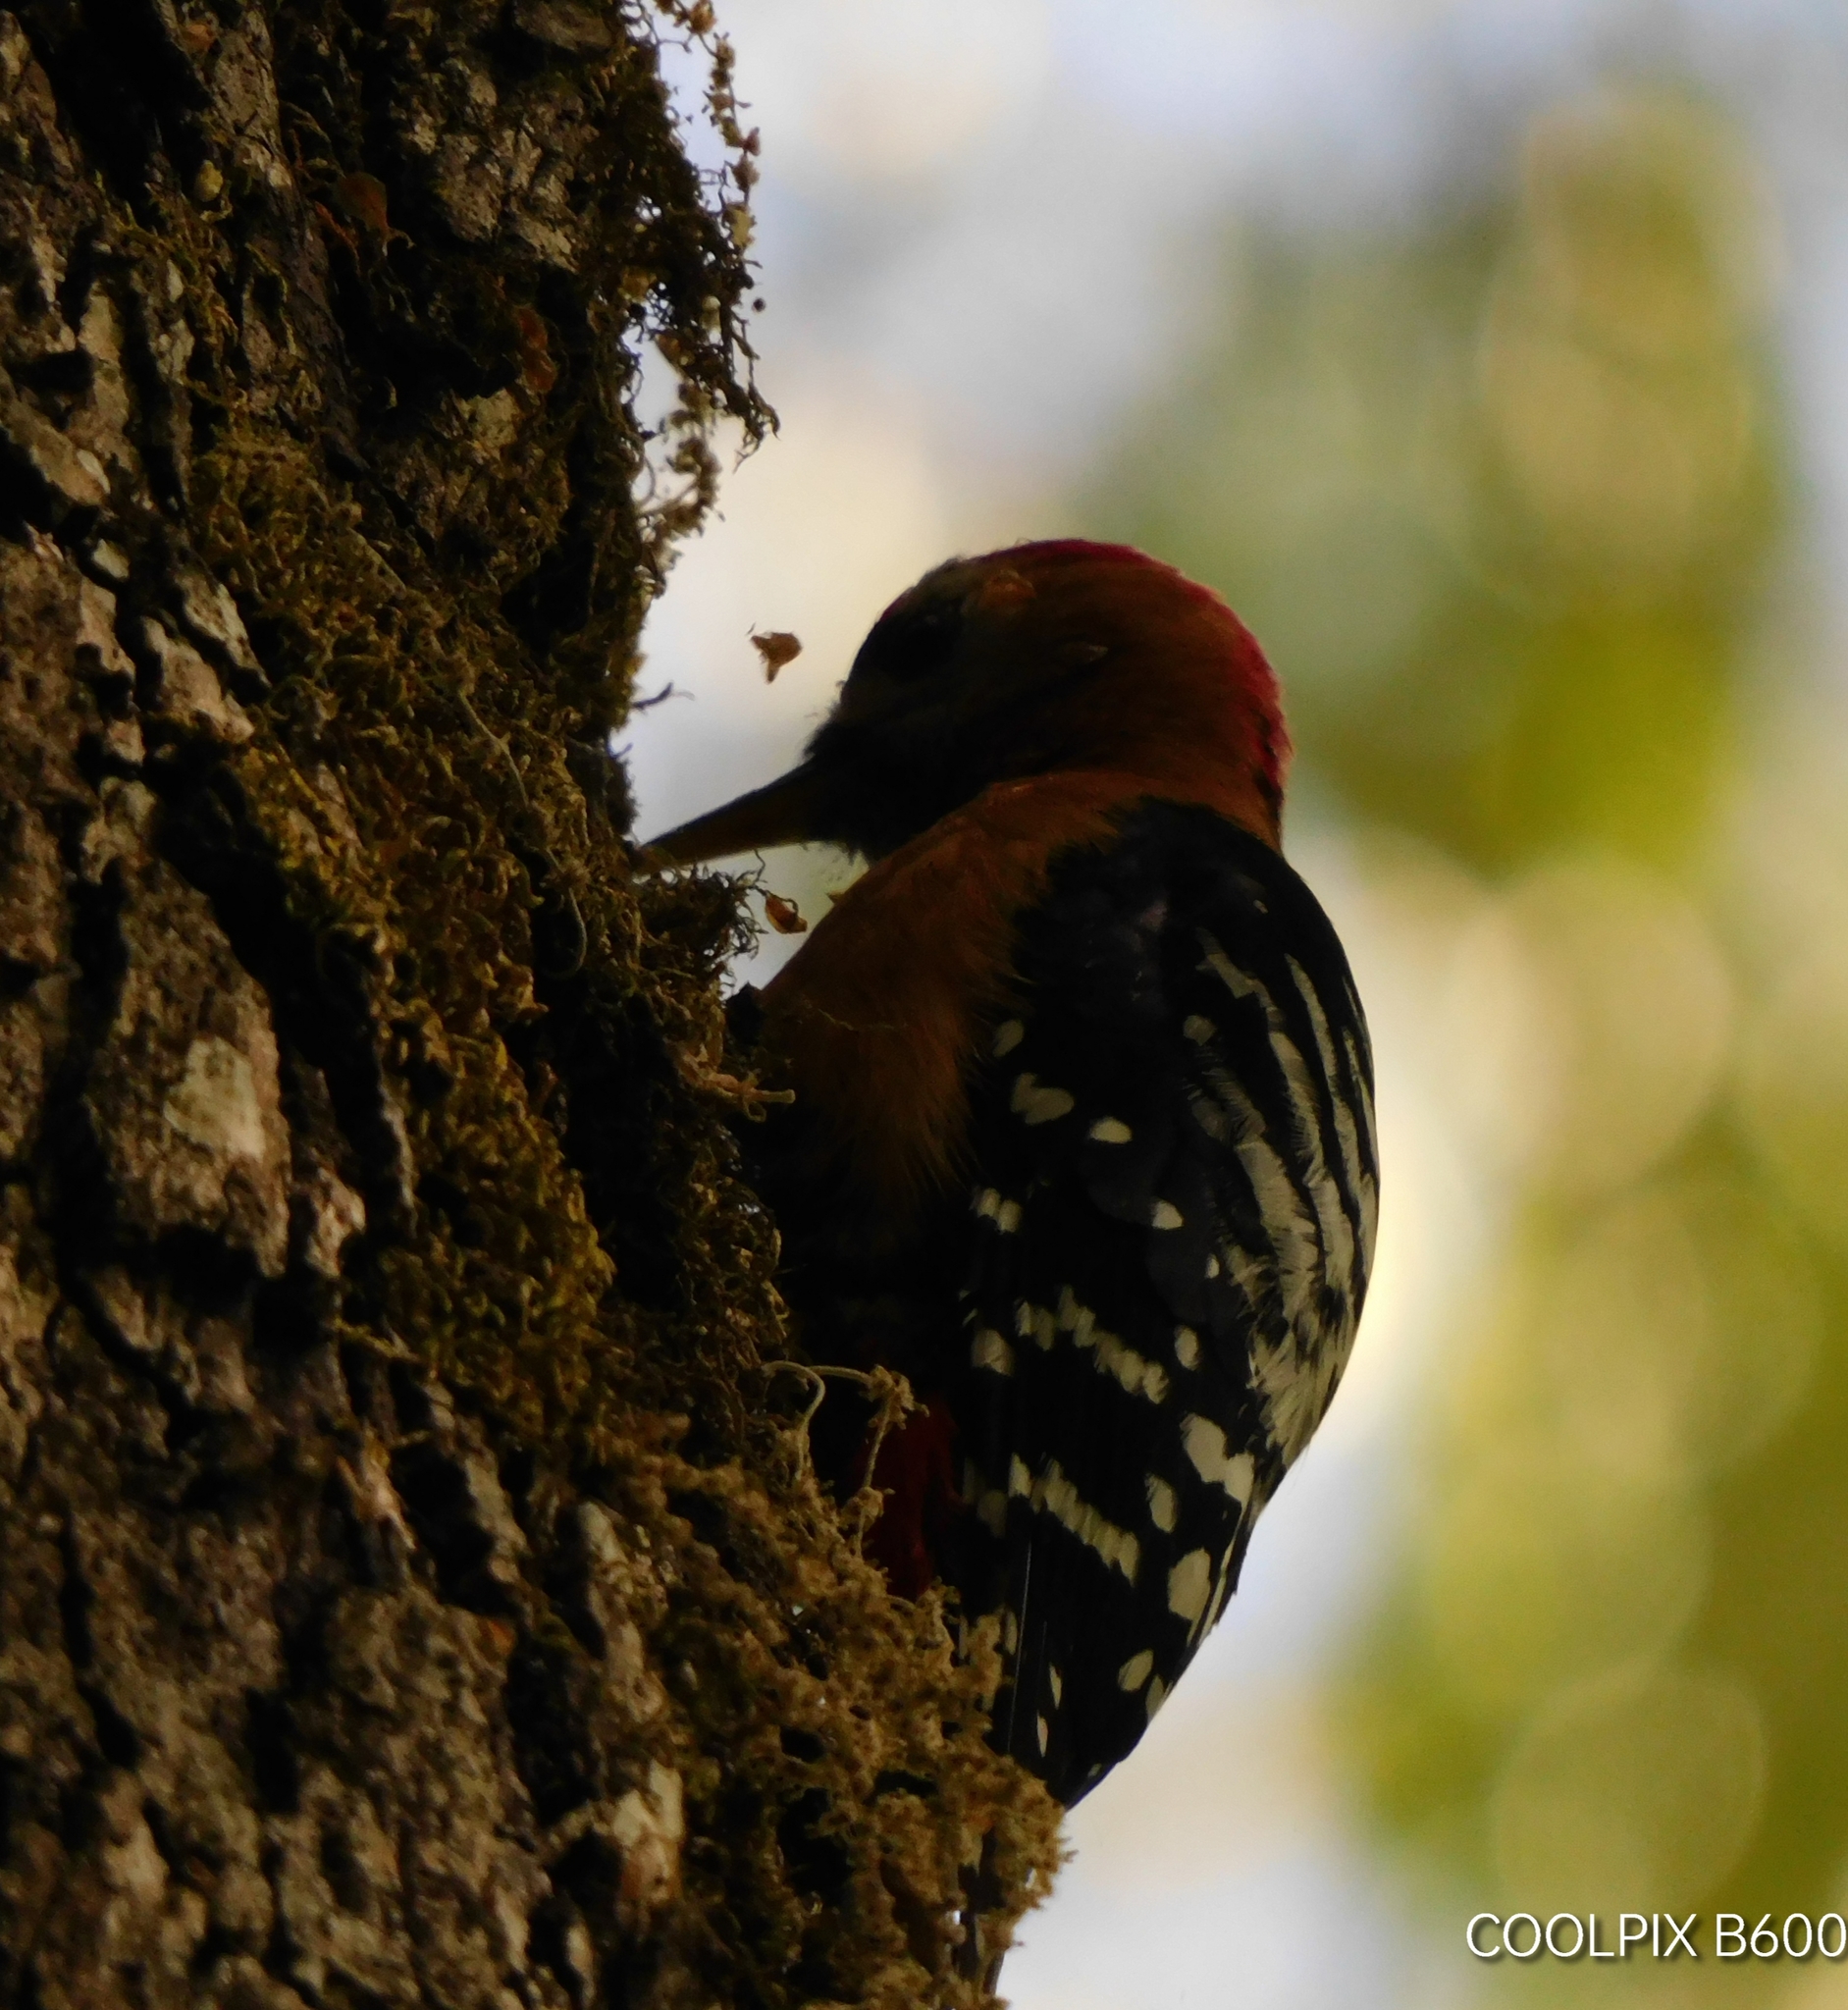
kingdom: Animalia
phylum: Chordata
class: Aves
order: Piciformes
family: Picidae
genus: Dendrocopos
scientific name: Dendrocopos hyperythrus
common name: Rufous-bellied woodpecker
